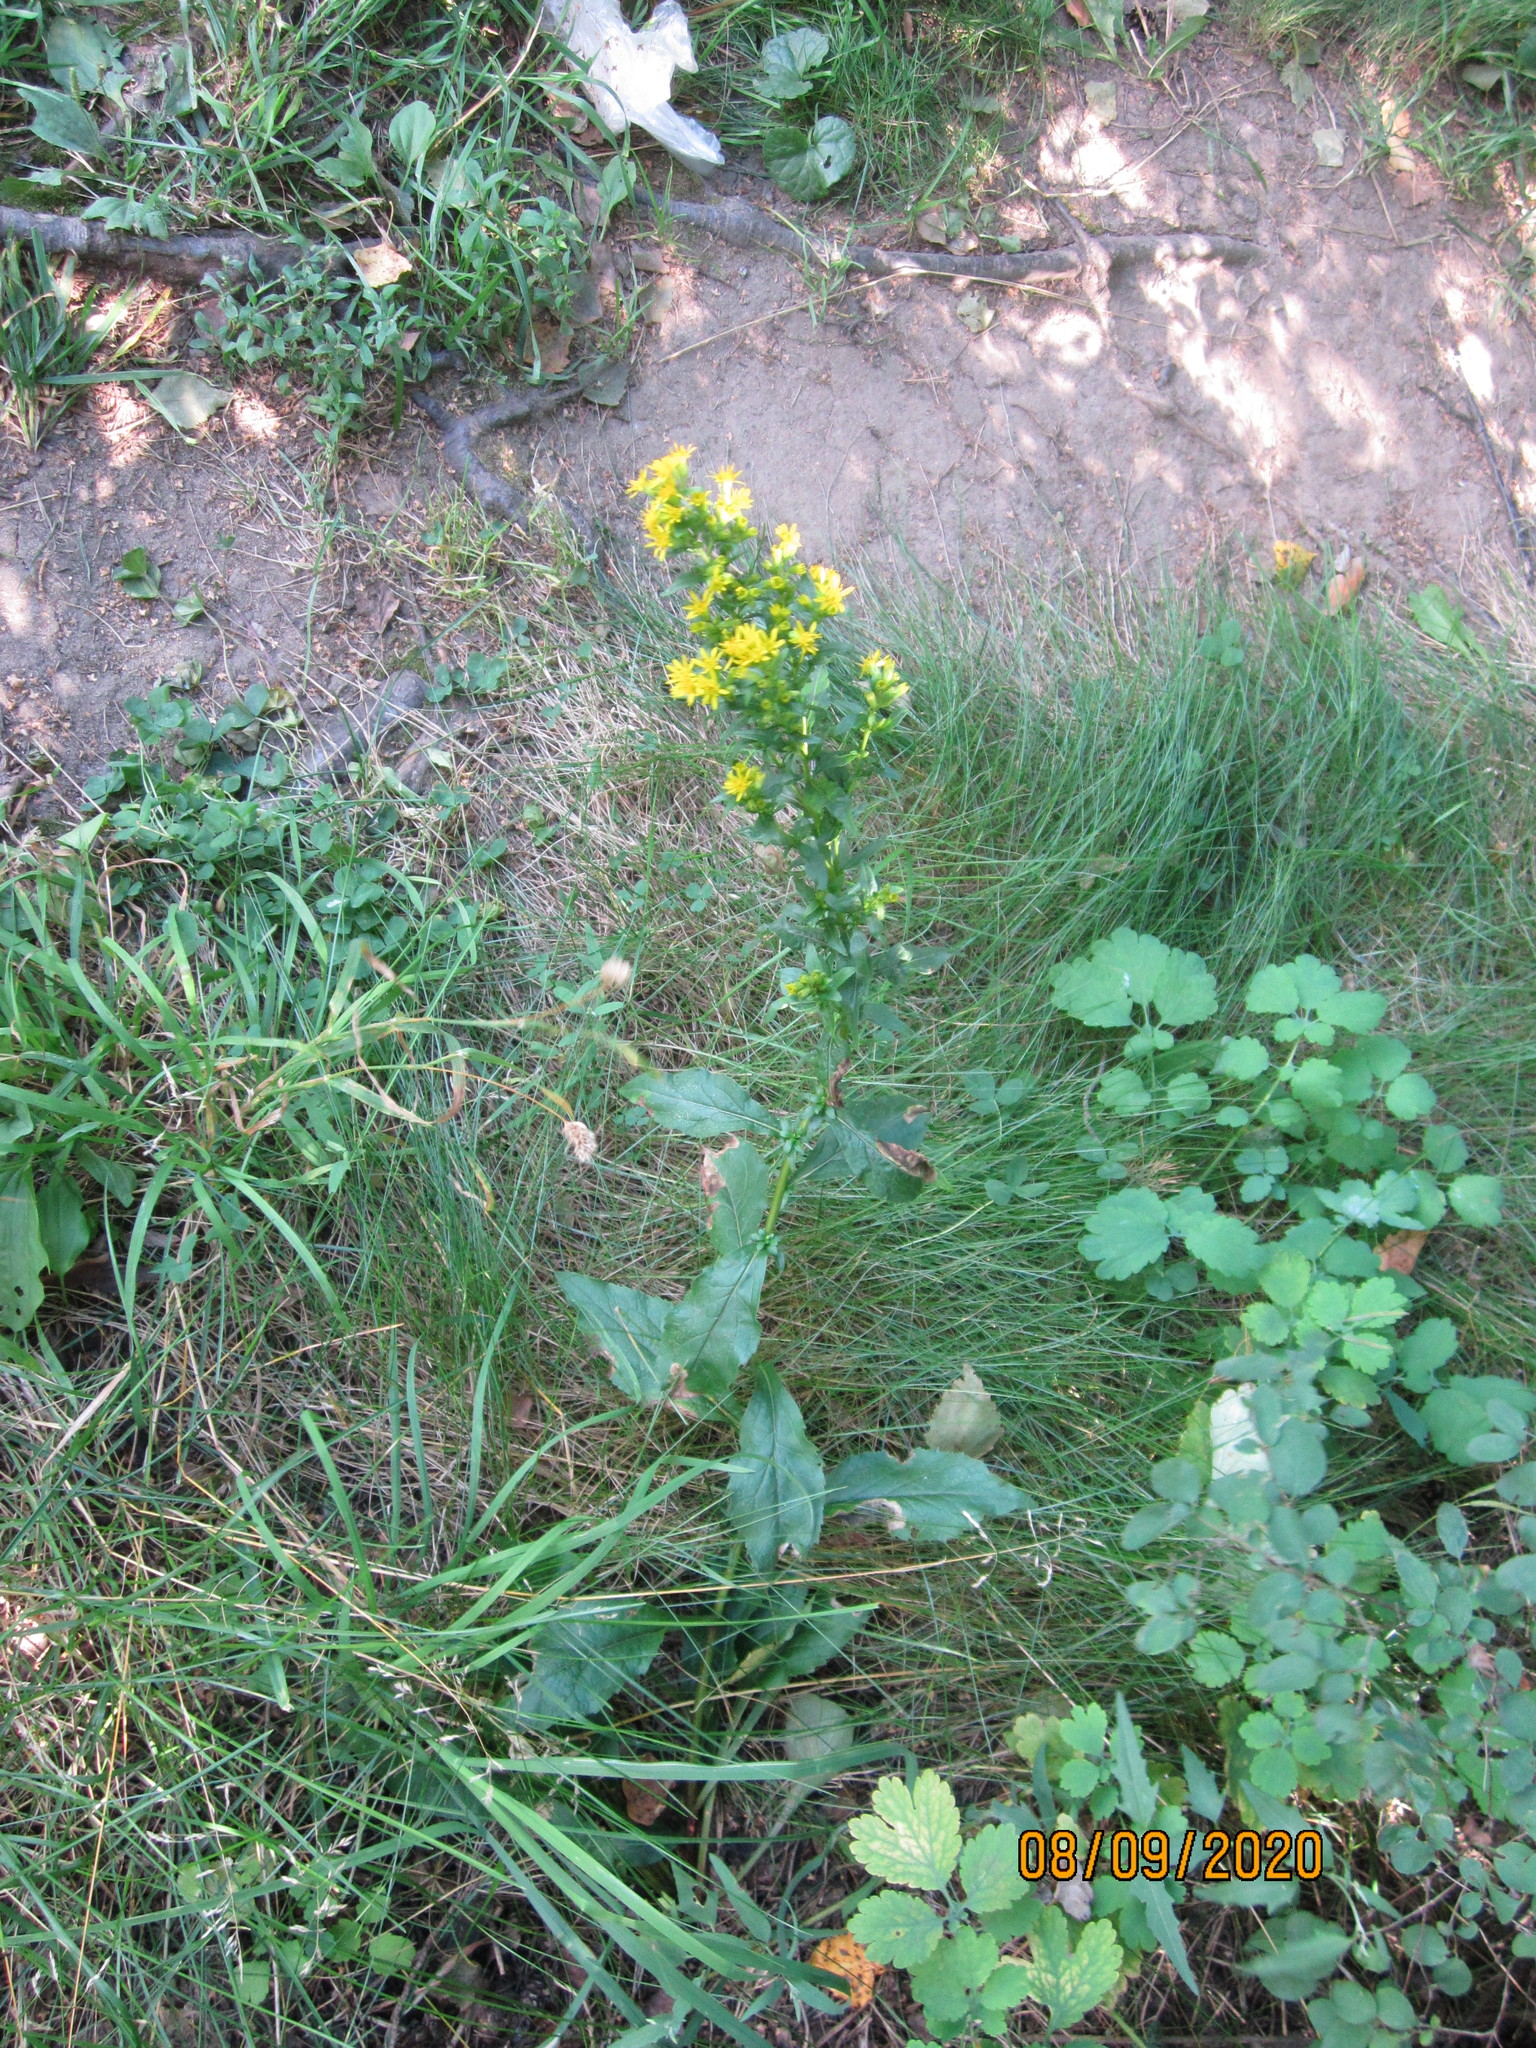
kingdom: Plantae
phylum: Tracheophyta
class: Magnoliopsida
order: Asterales
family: Asteraceae
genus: Solidago
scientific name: Solidago virgaurea
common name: Goldenrod
